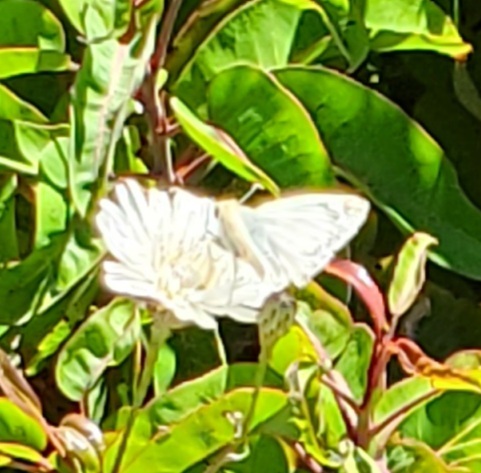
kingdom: Animalia
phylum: Arthropoda
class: Insecta
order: Lepidoptera
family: Hesperiidae
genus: Heliopetes
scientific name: Heliopetes ericetorum
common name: Northern white-skipper
